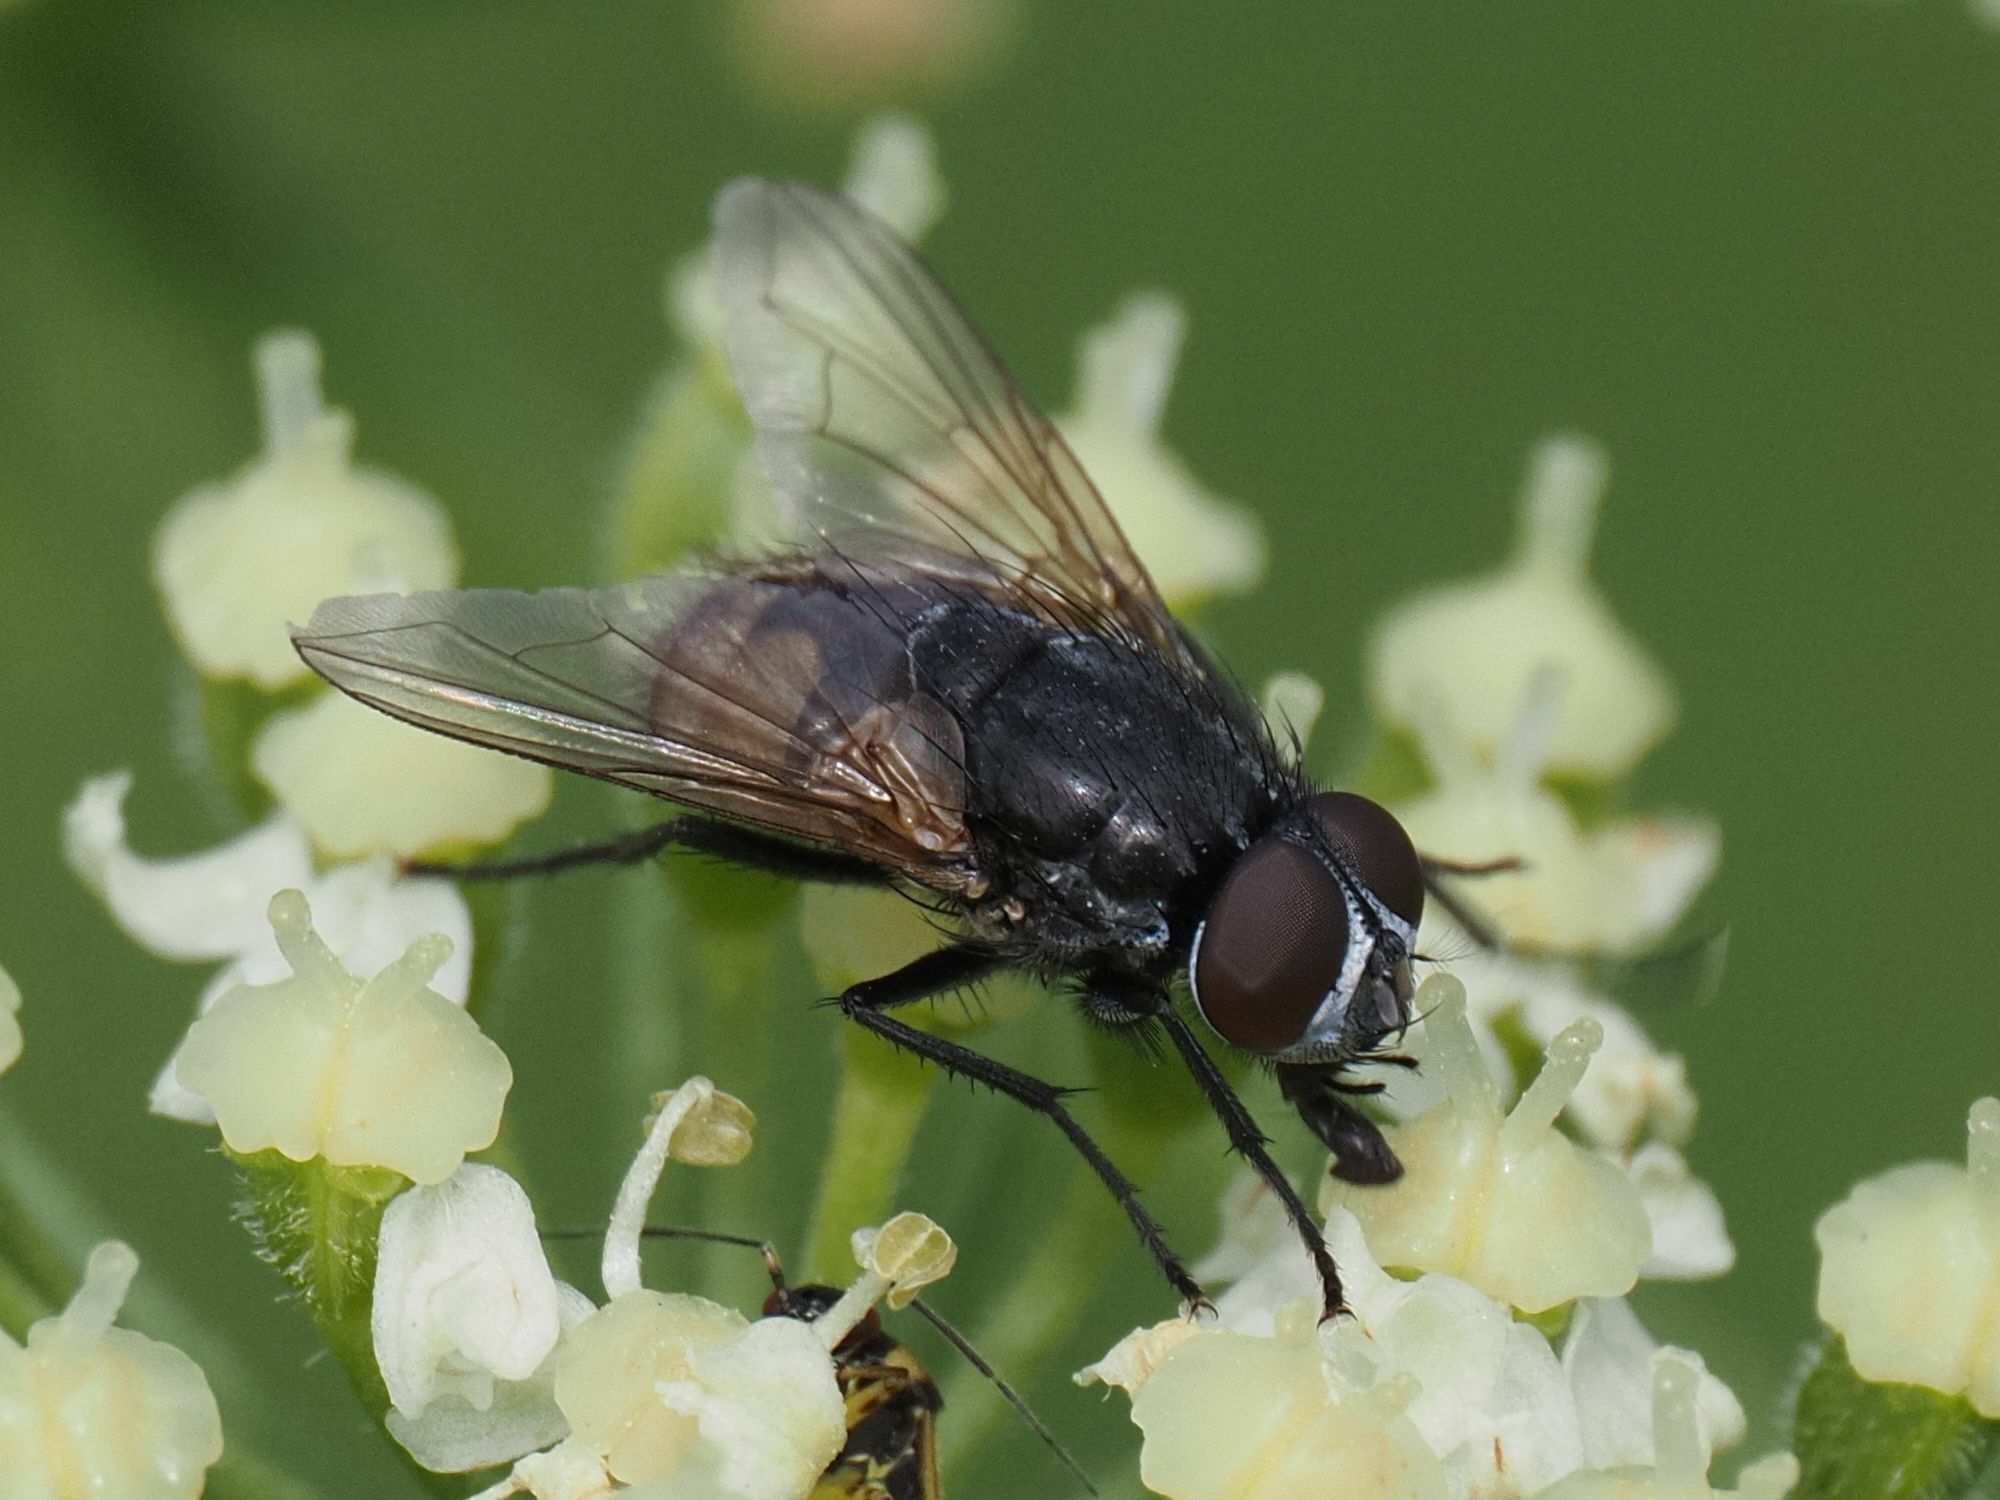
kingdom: Animalia
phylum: Arthropoda
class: Insecta
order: Diptera
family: Muscidae
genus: Musca
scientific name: Musca autumnalis
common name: Face fly
